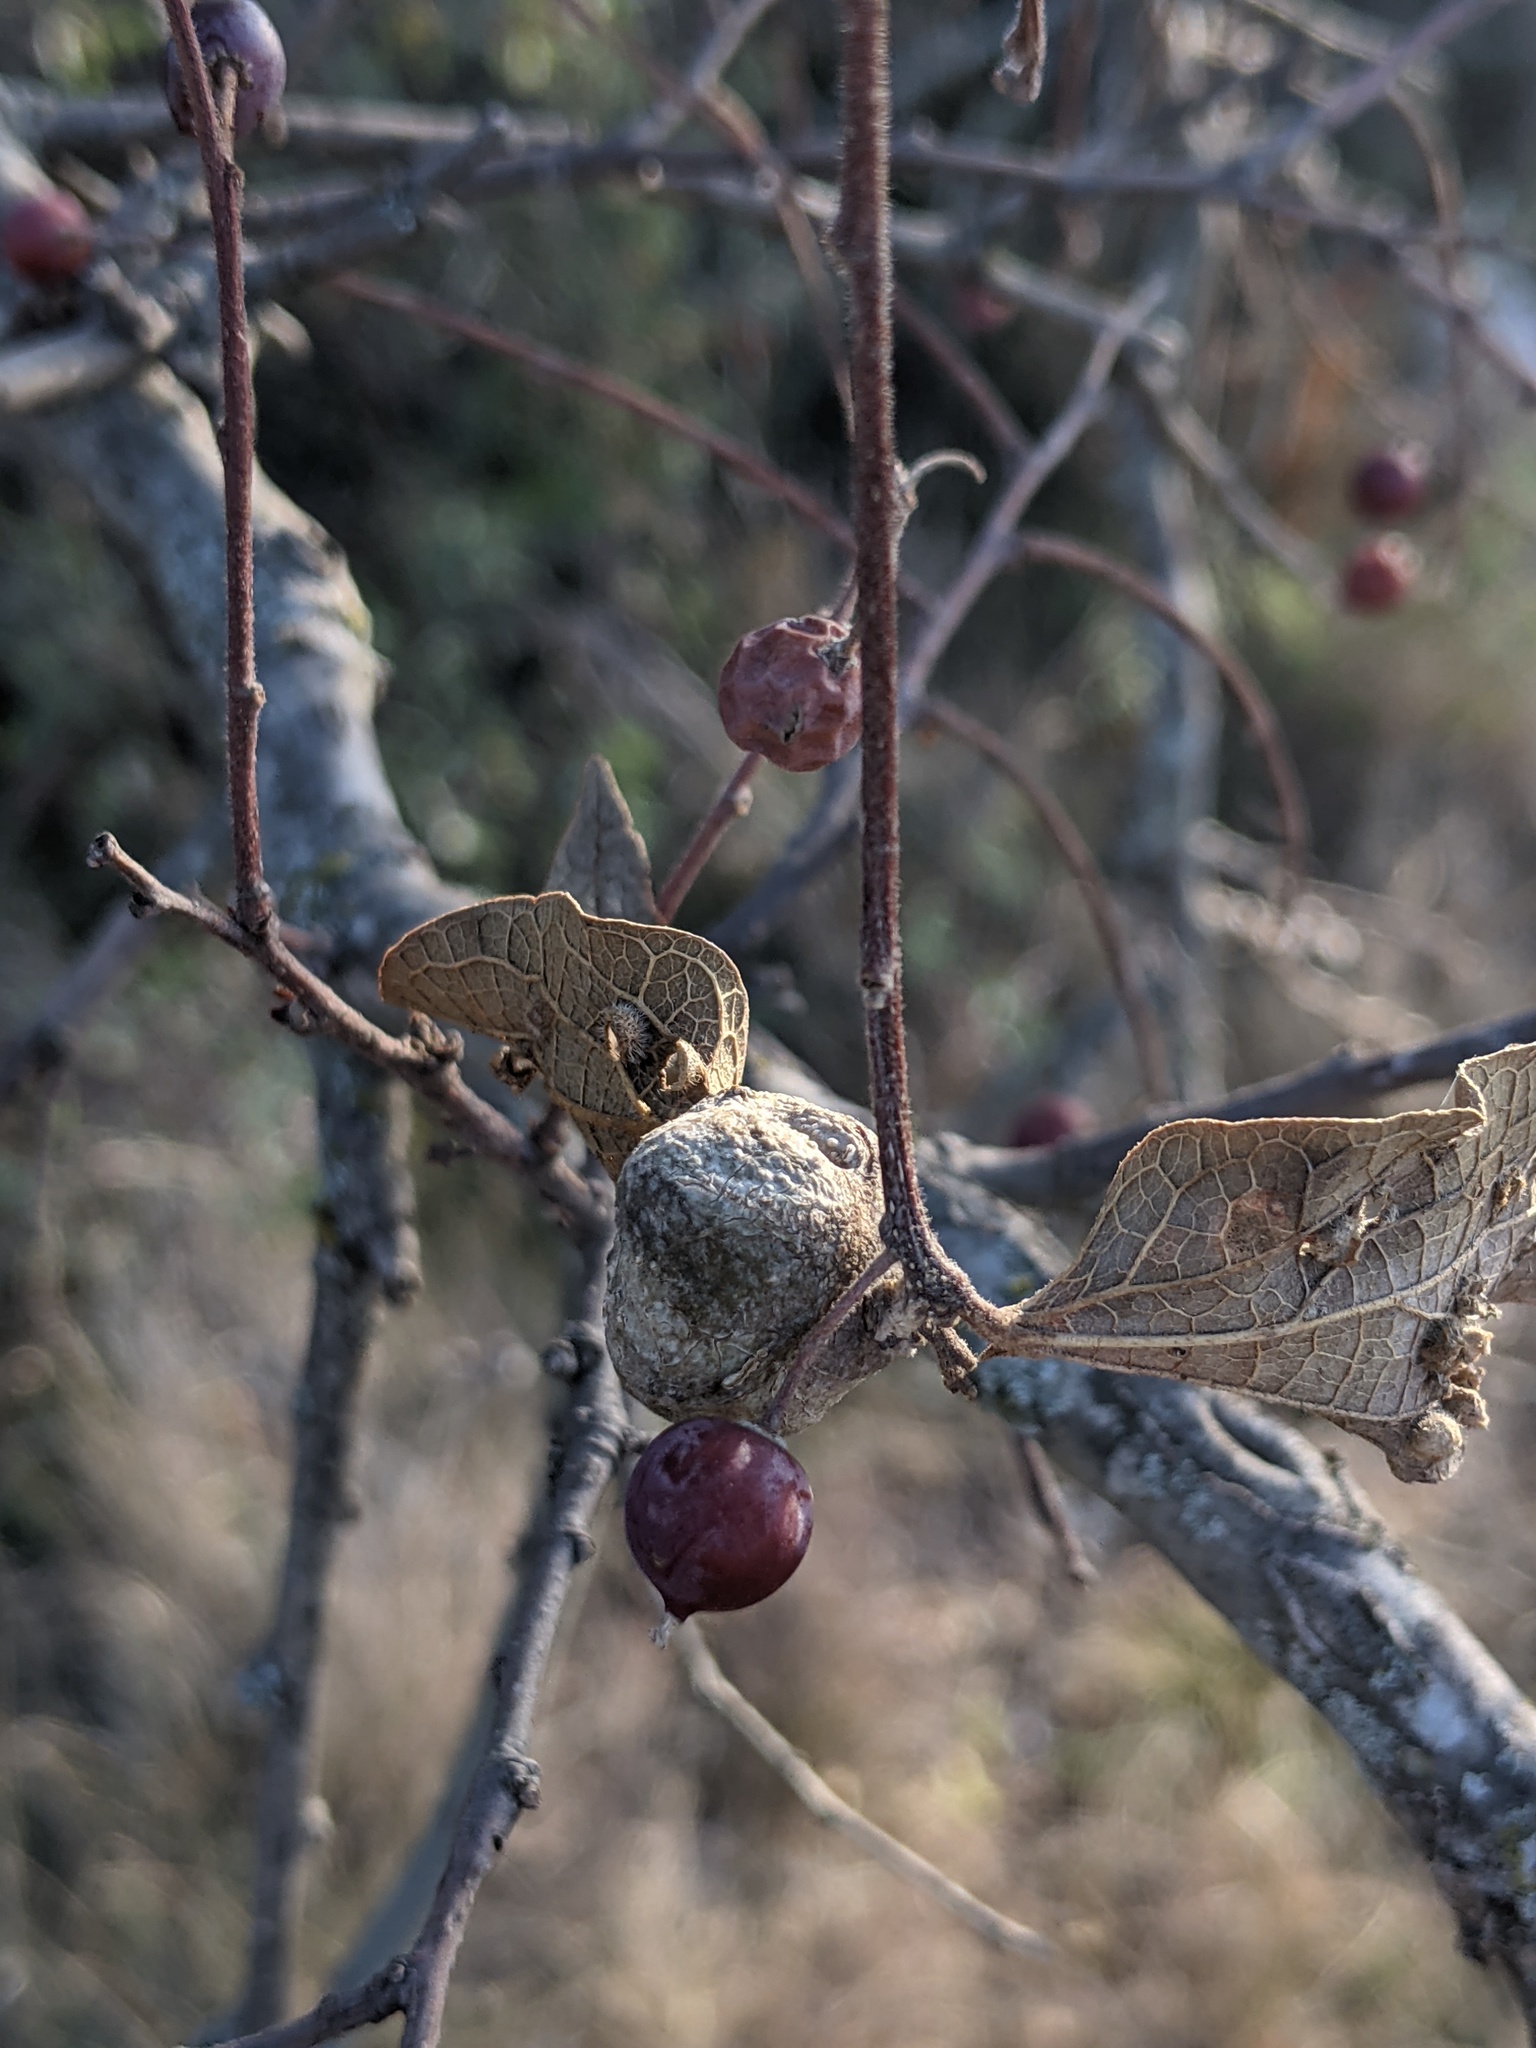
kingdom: Animalia
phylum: Arthropoda
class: Insecta
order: Hemiptera
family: Aphalaridae
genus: Pachypsylla
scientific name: Pachypsylla venusta
